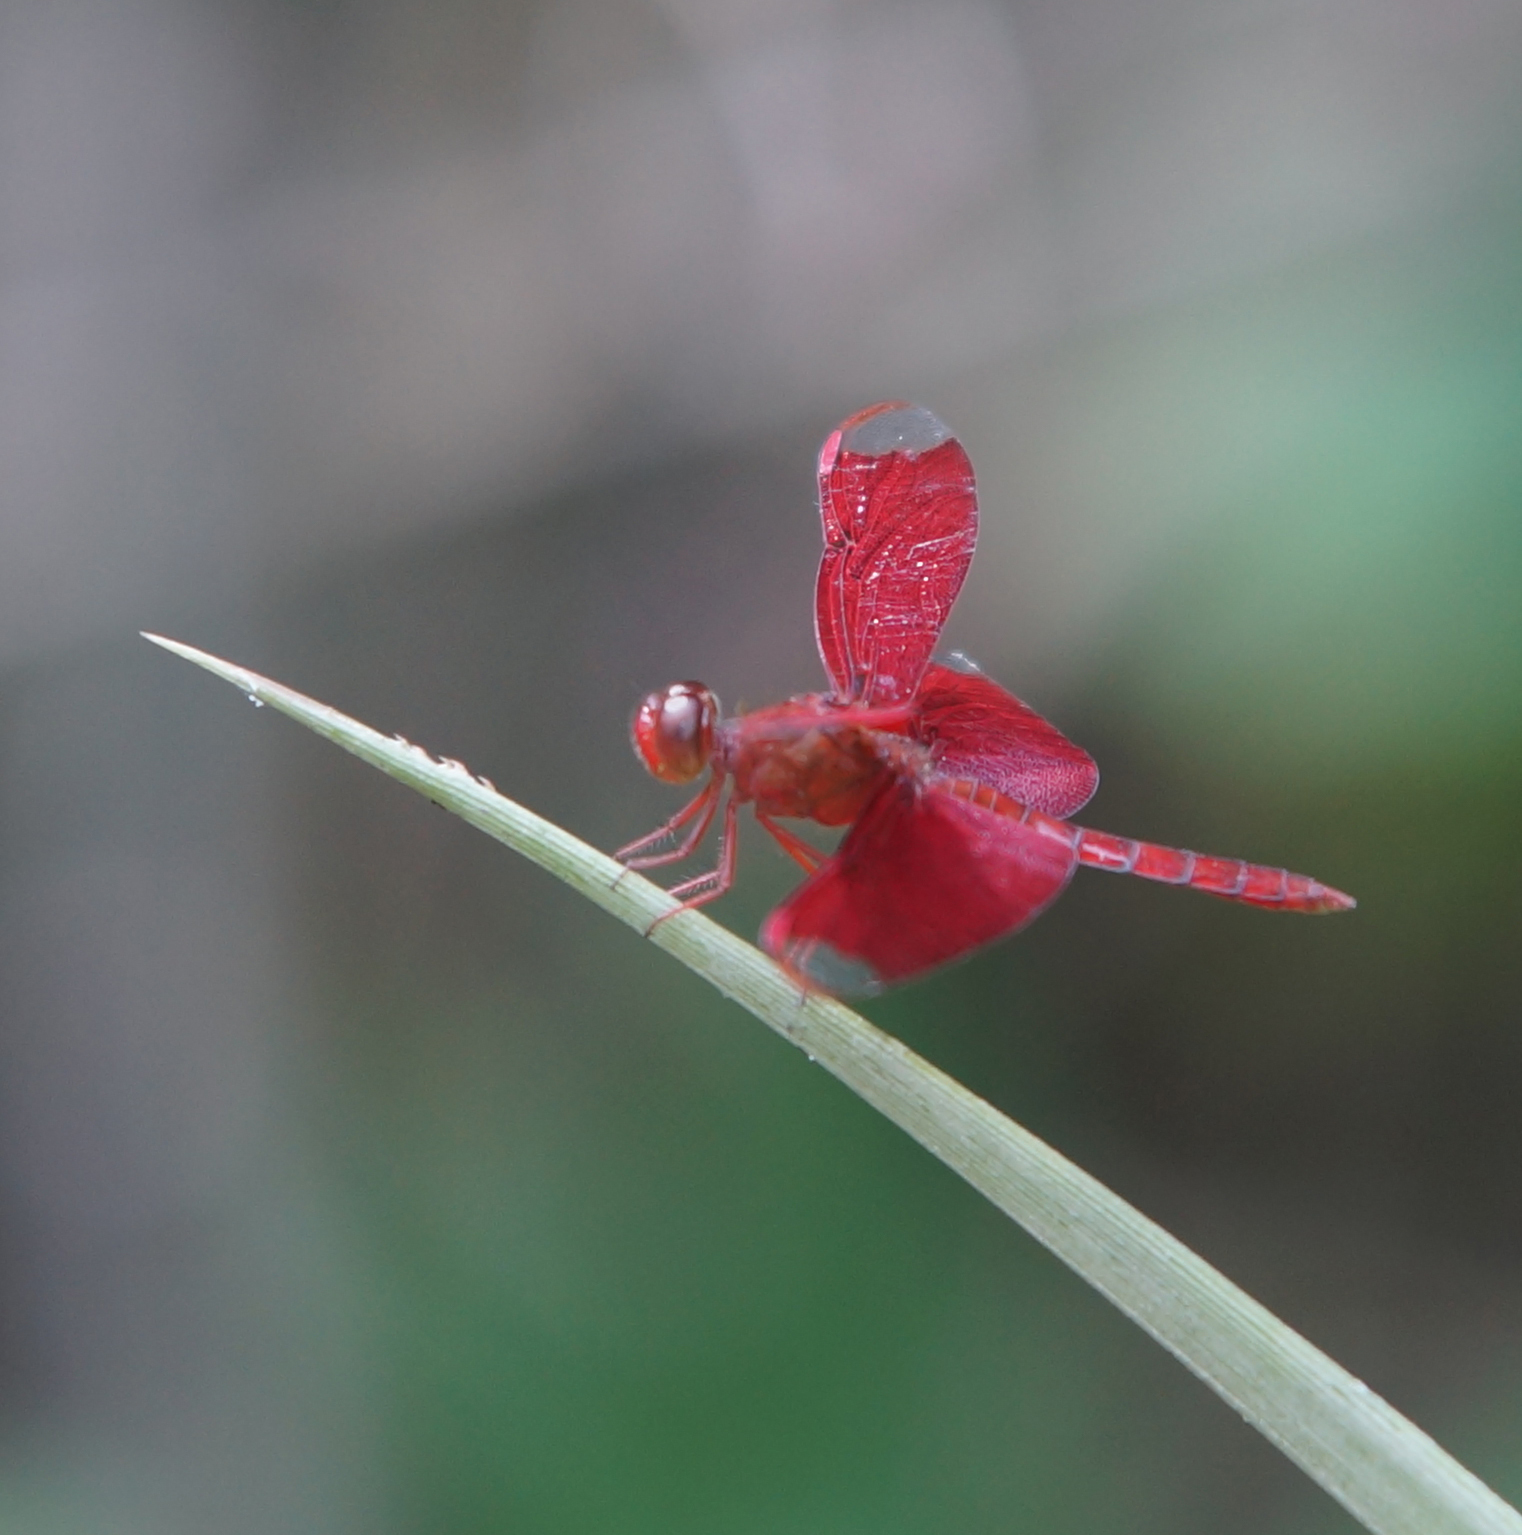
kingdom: Animalia
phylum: Arthropoda
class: Insecta
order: Odonata
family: Libellulidae
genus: Neurothemis
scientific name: Neurothemis fulvia
